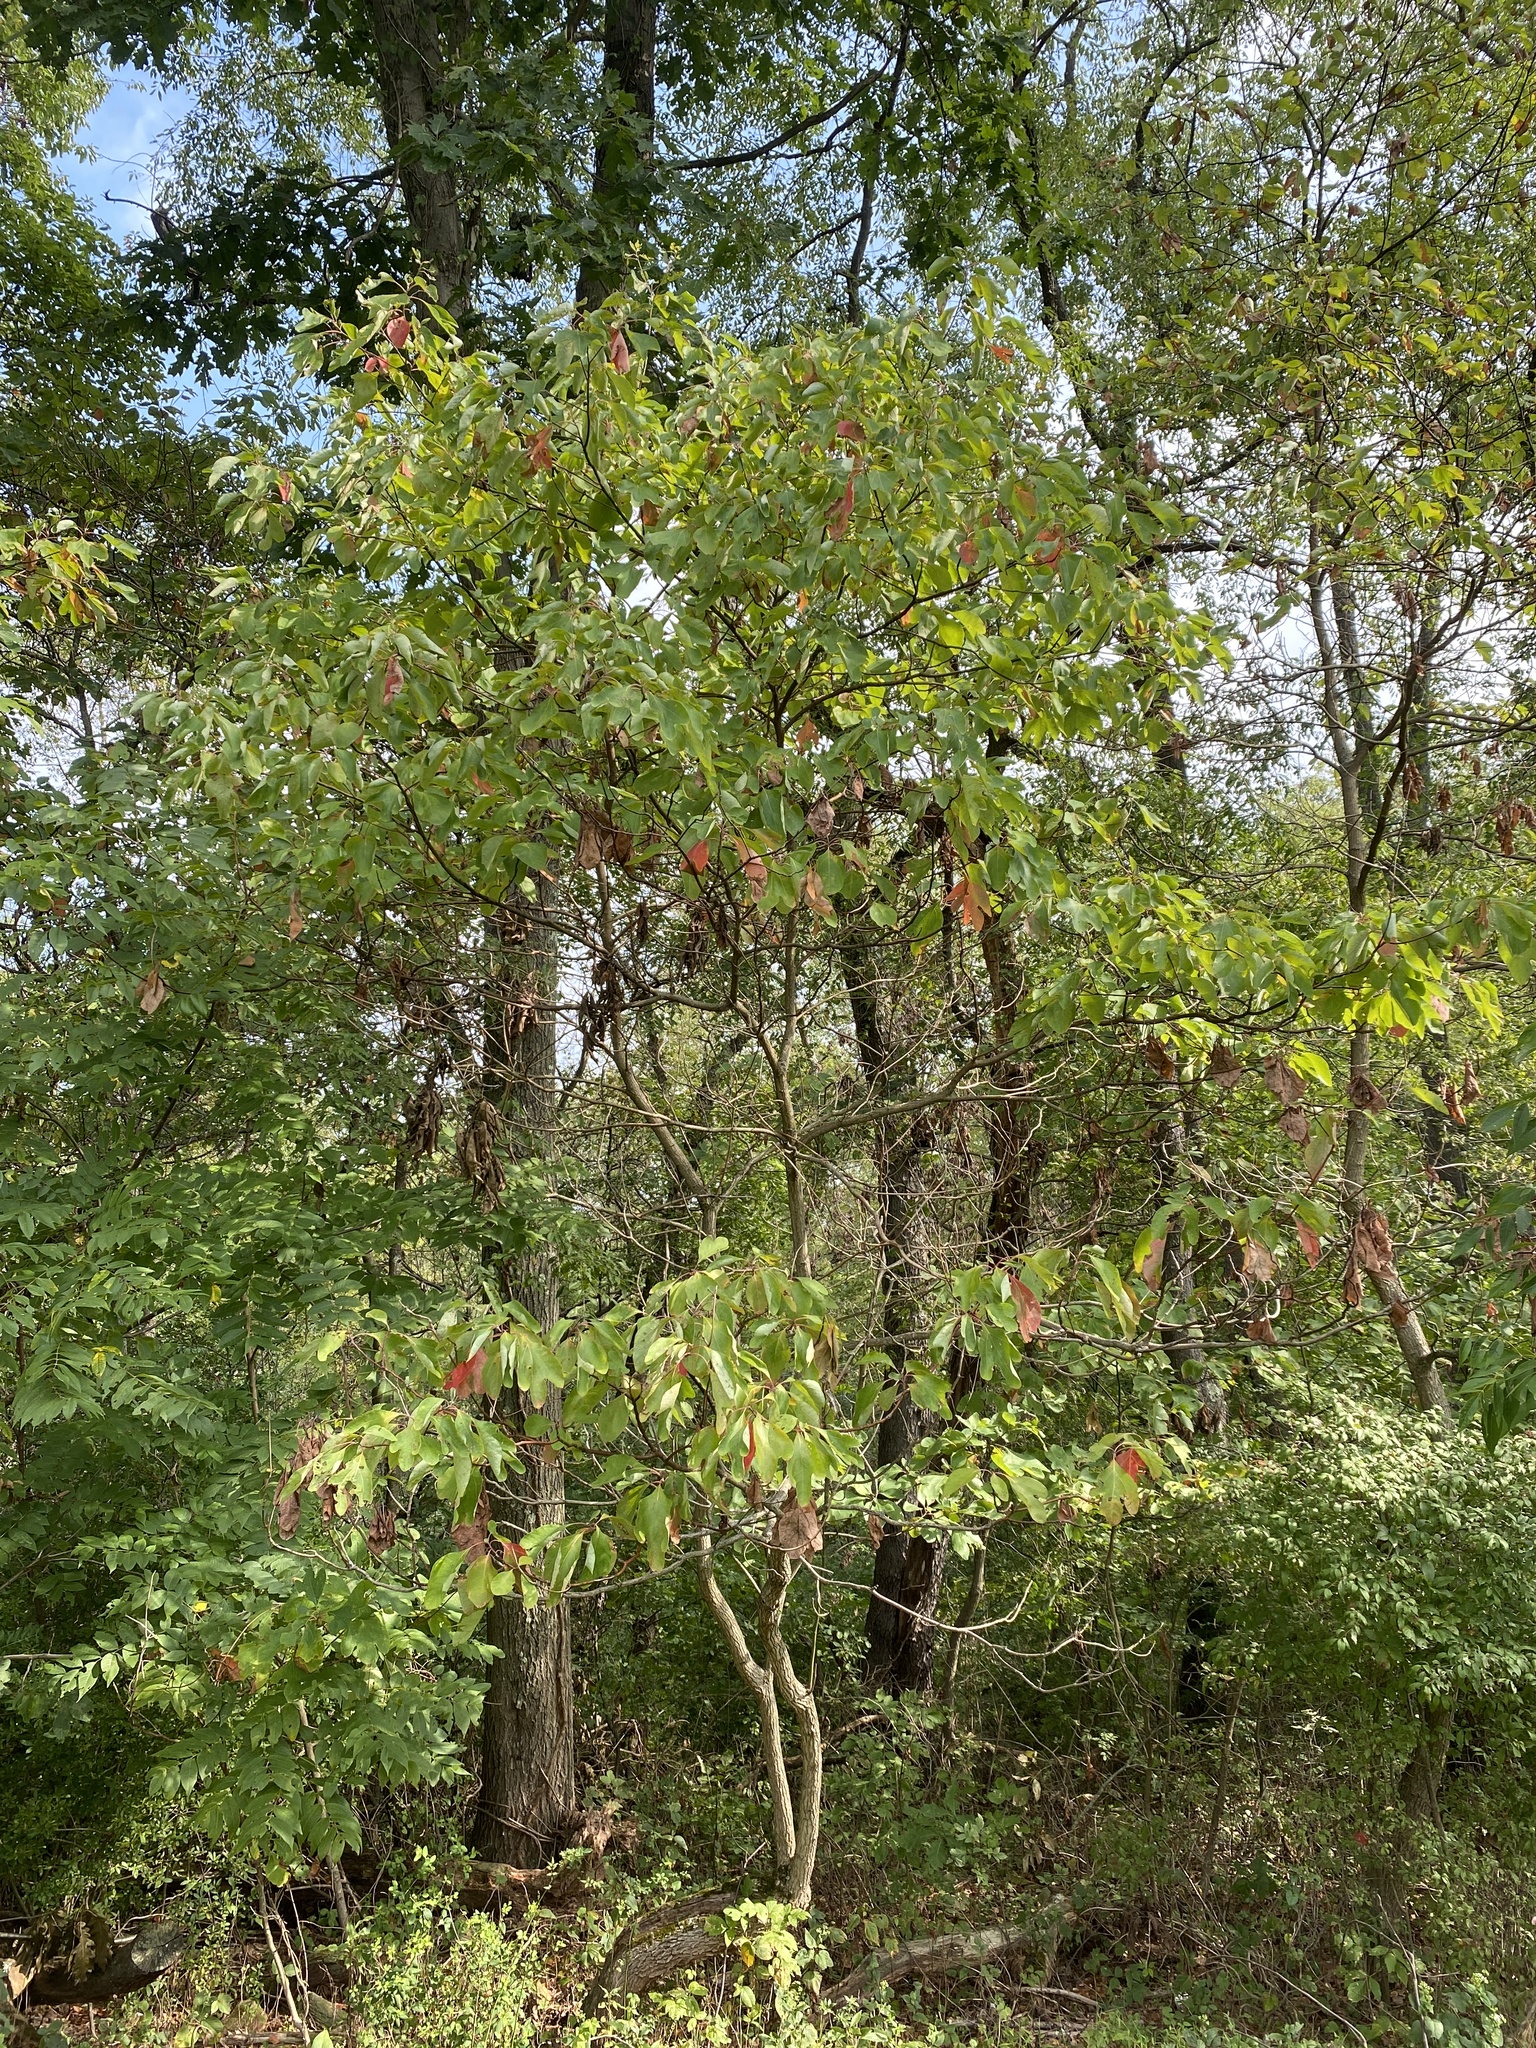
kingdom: Plantae
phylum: Tracheophyta
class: Magnoliopsida
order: Laurales
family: Lauraceae
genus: Sassafras
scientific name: Sassafras albidum
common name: Sassafras
